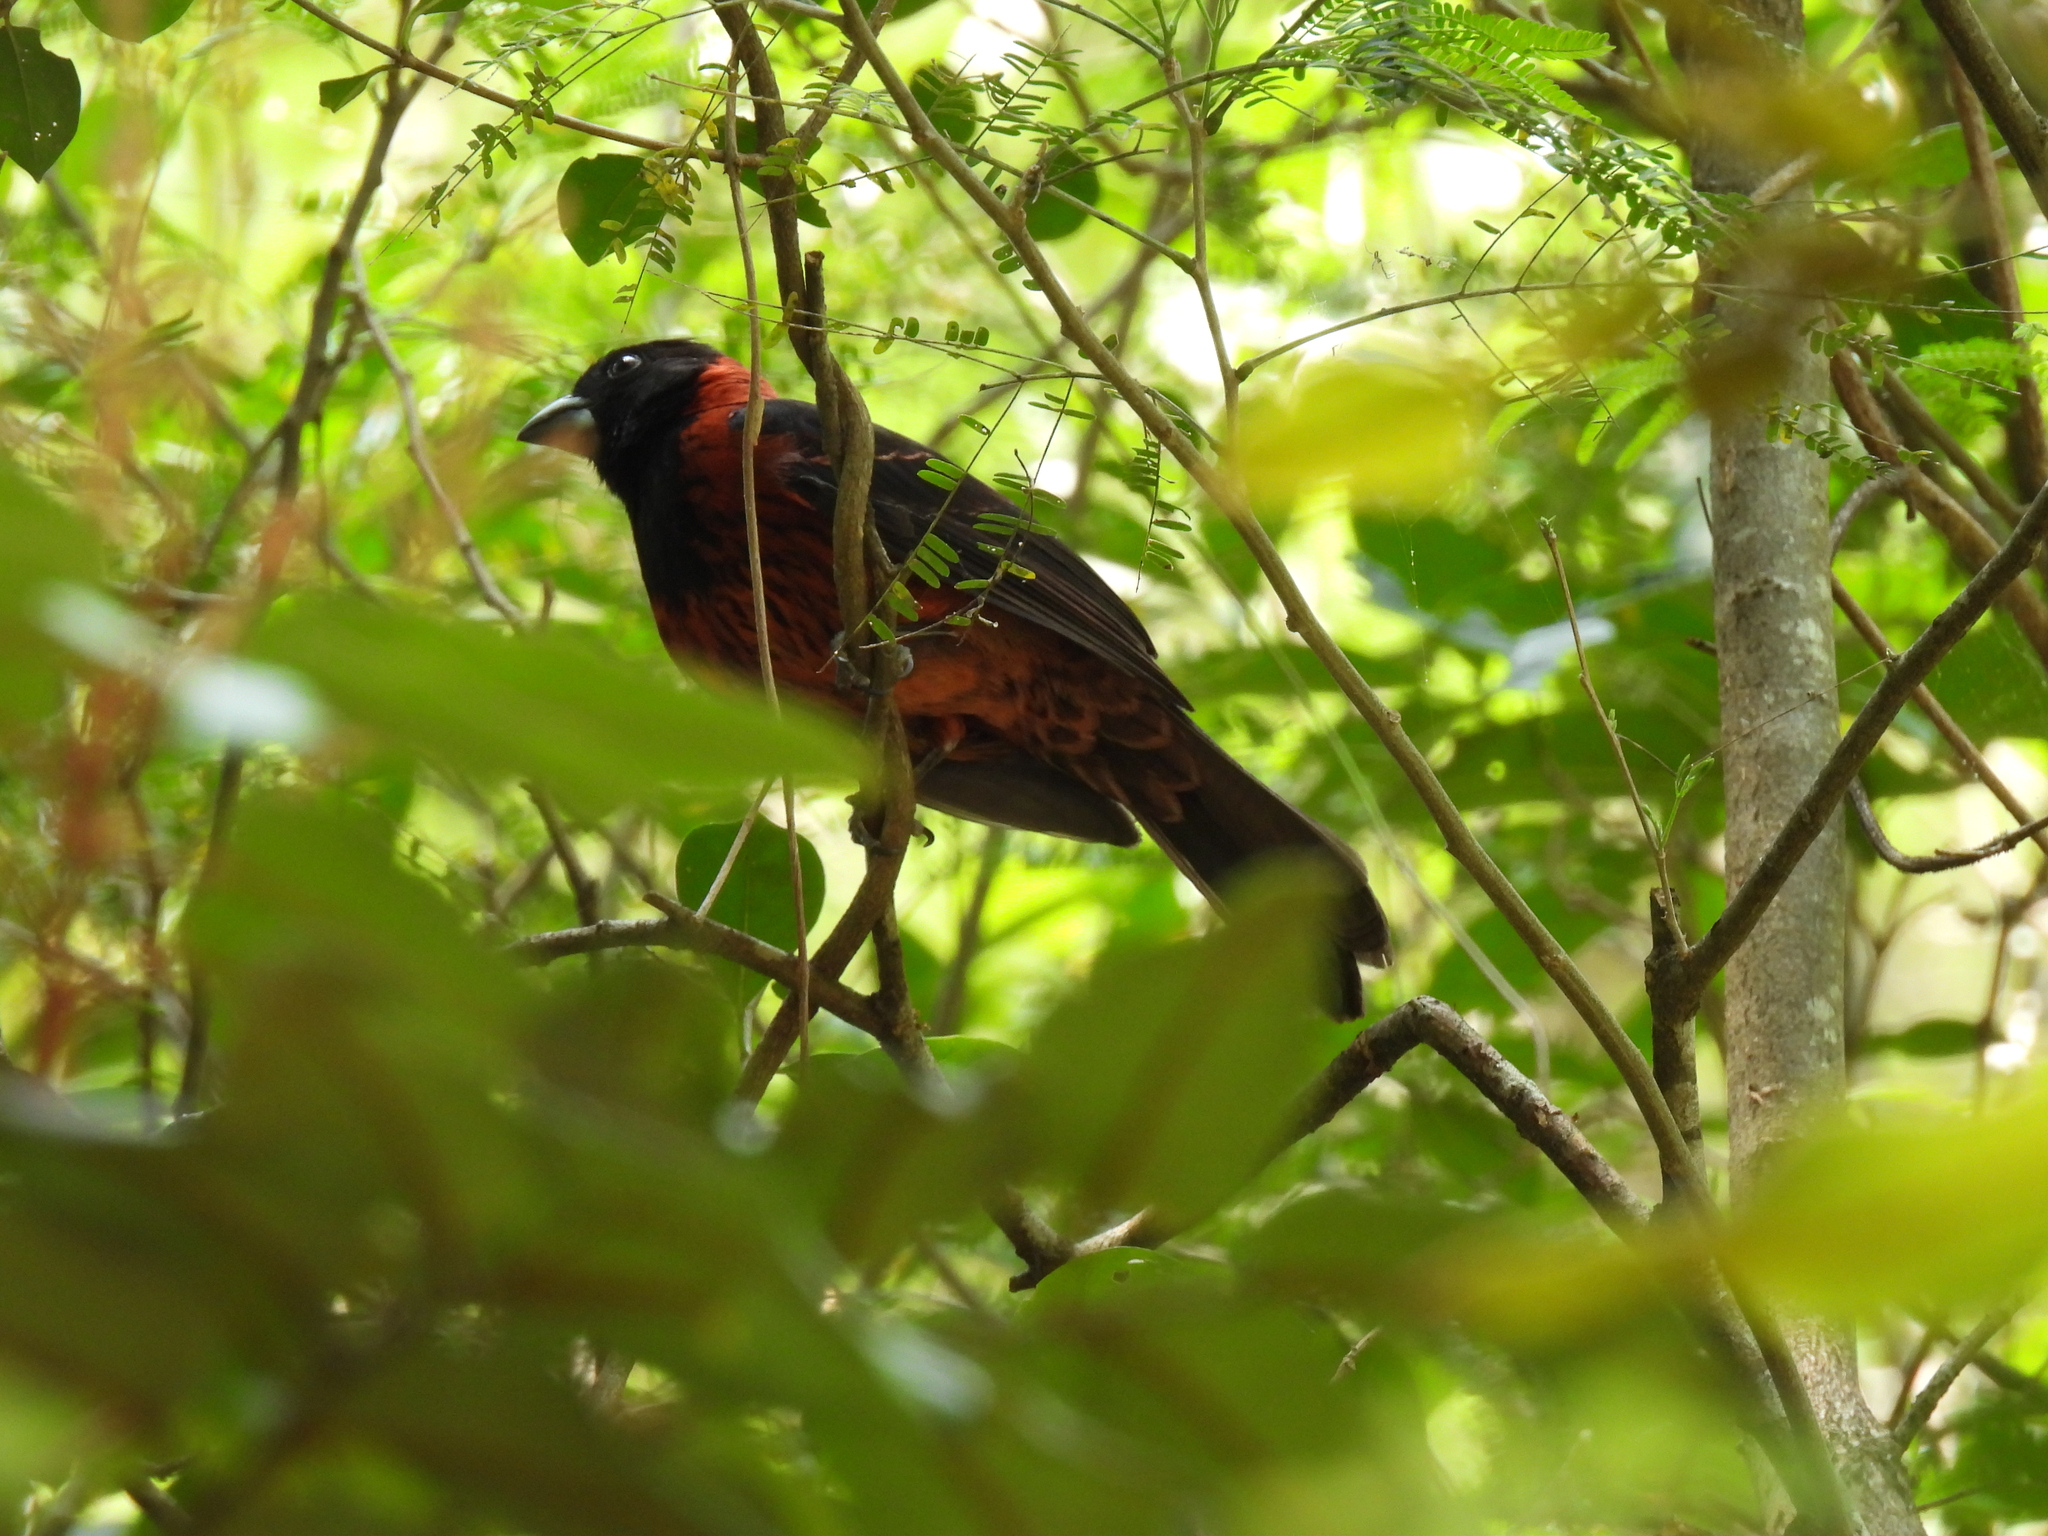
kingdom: Animalia
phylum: Chordata
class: Aves
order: Passeriformes
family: Cardinalidae
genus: Rhodothraupis
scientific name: Rhodothraupis celaeno
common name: Crimson-collared grosbeak
